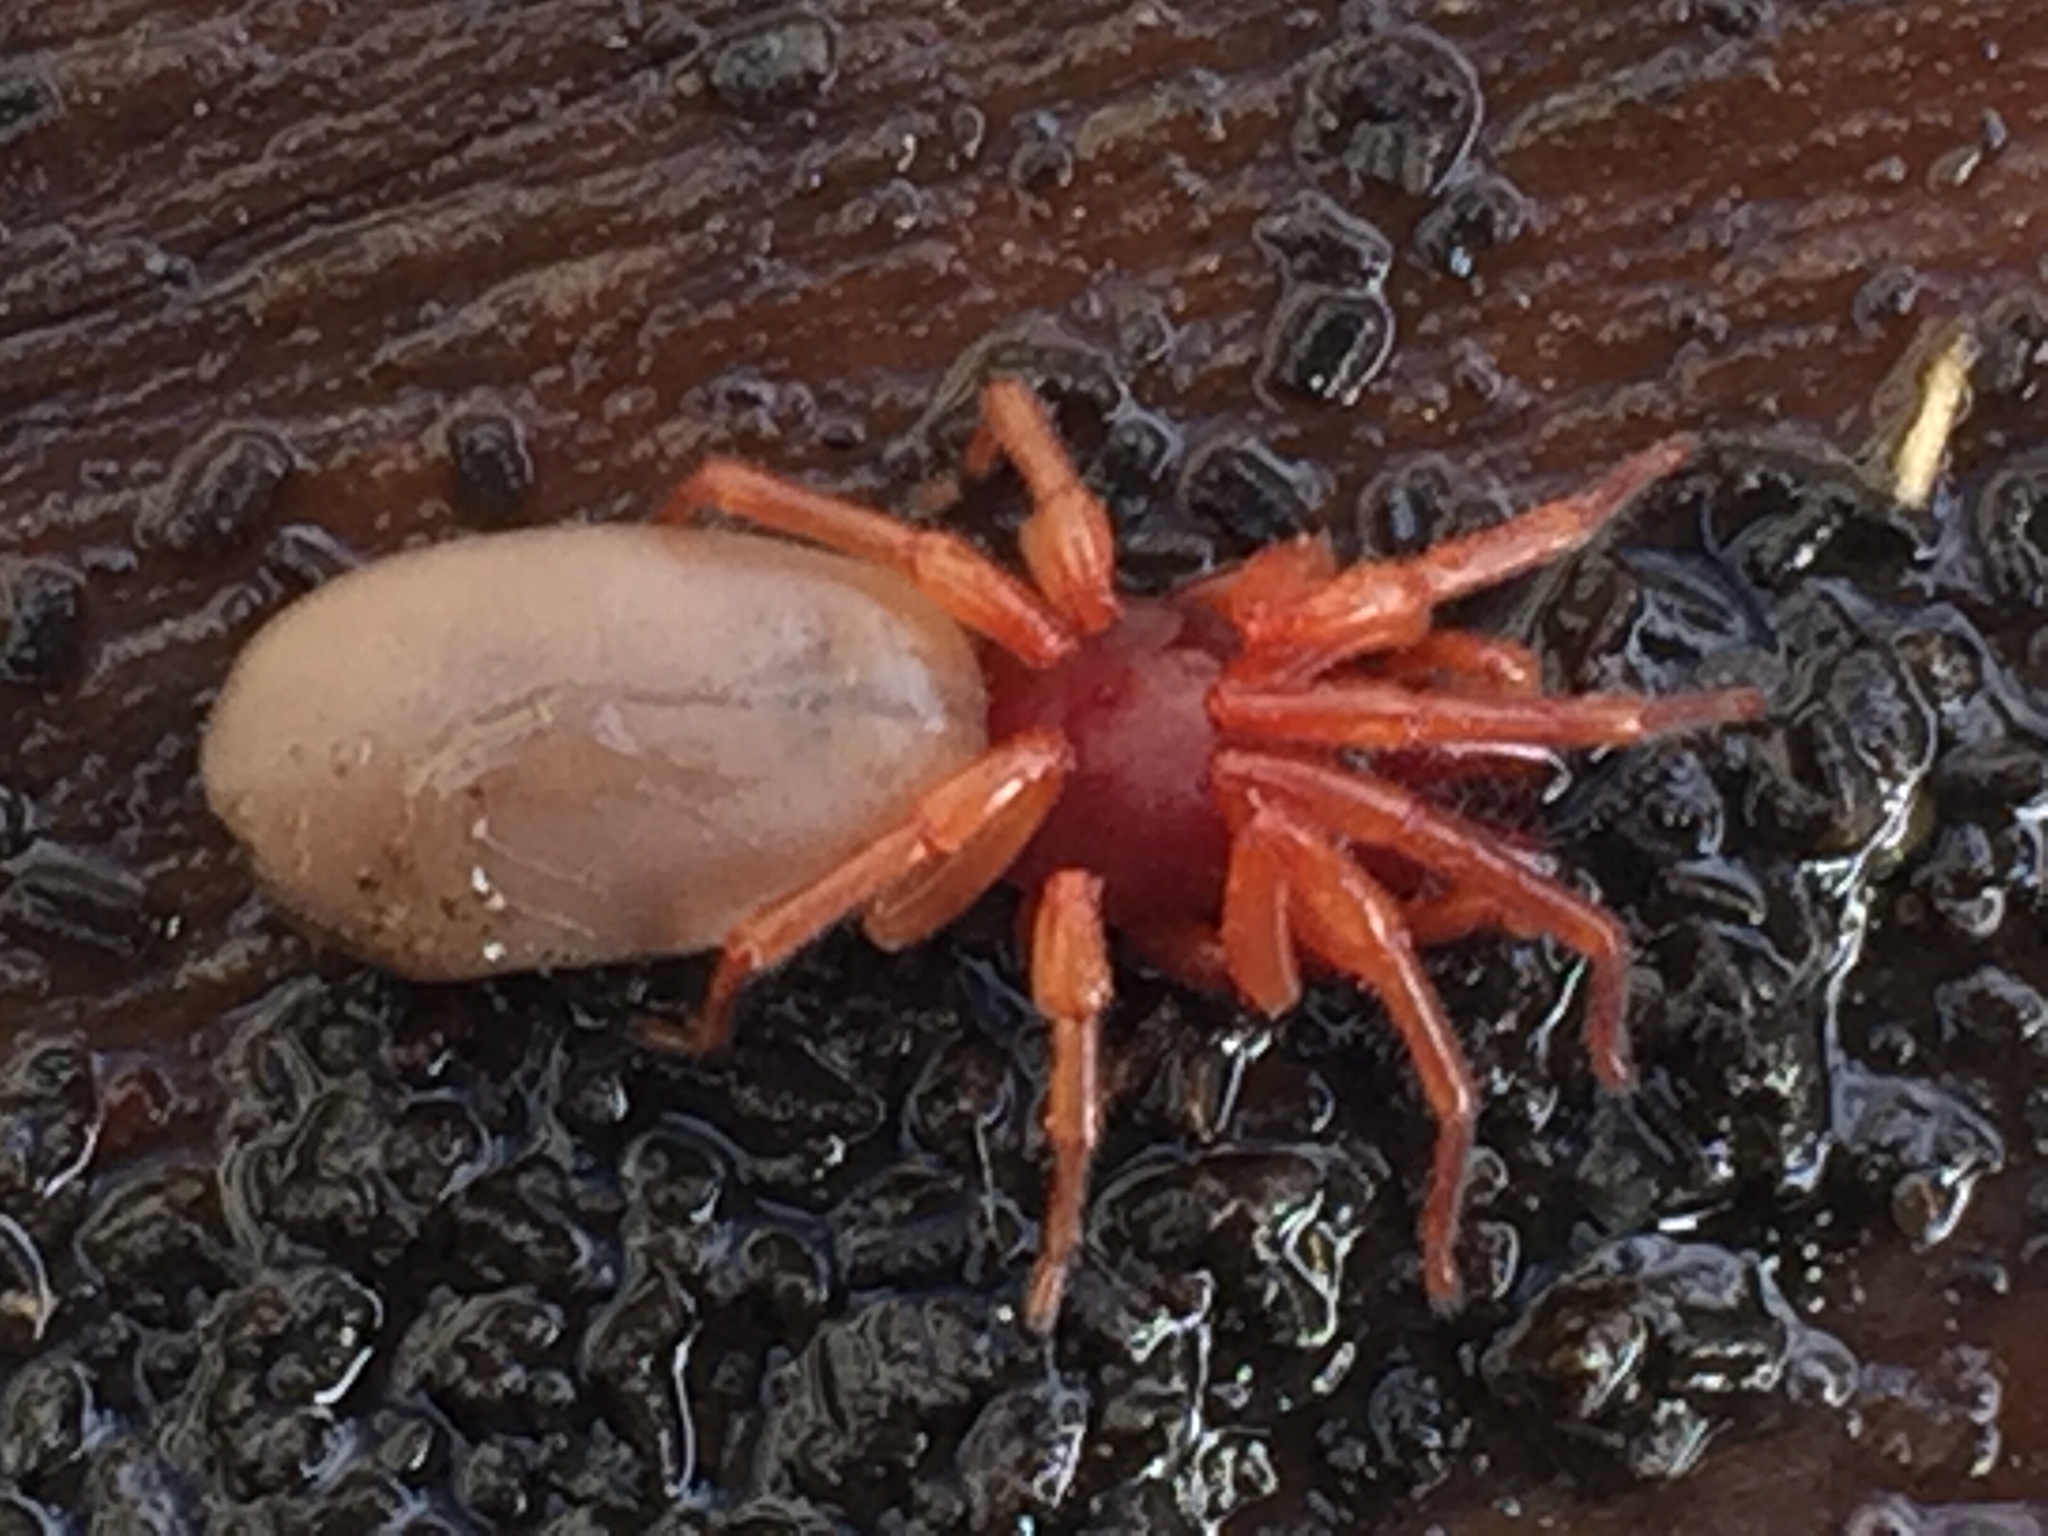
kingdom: Animalia
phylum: Arthropoda
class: Arachnida
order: Araneae
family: Dysderidae
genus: Dysdera
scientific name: Dysdera crocata
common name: Woodlouse spider
